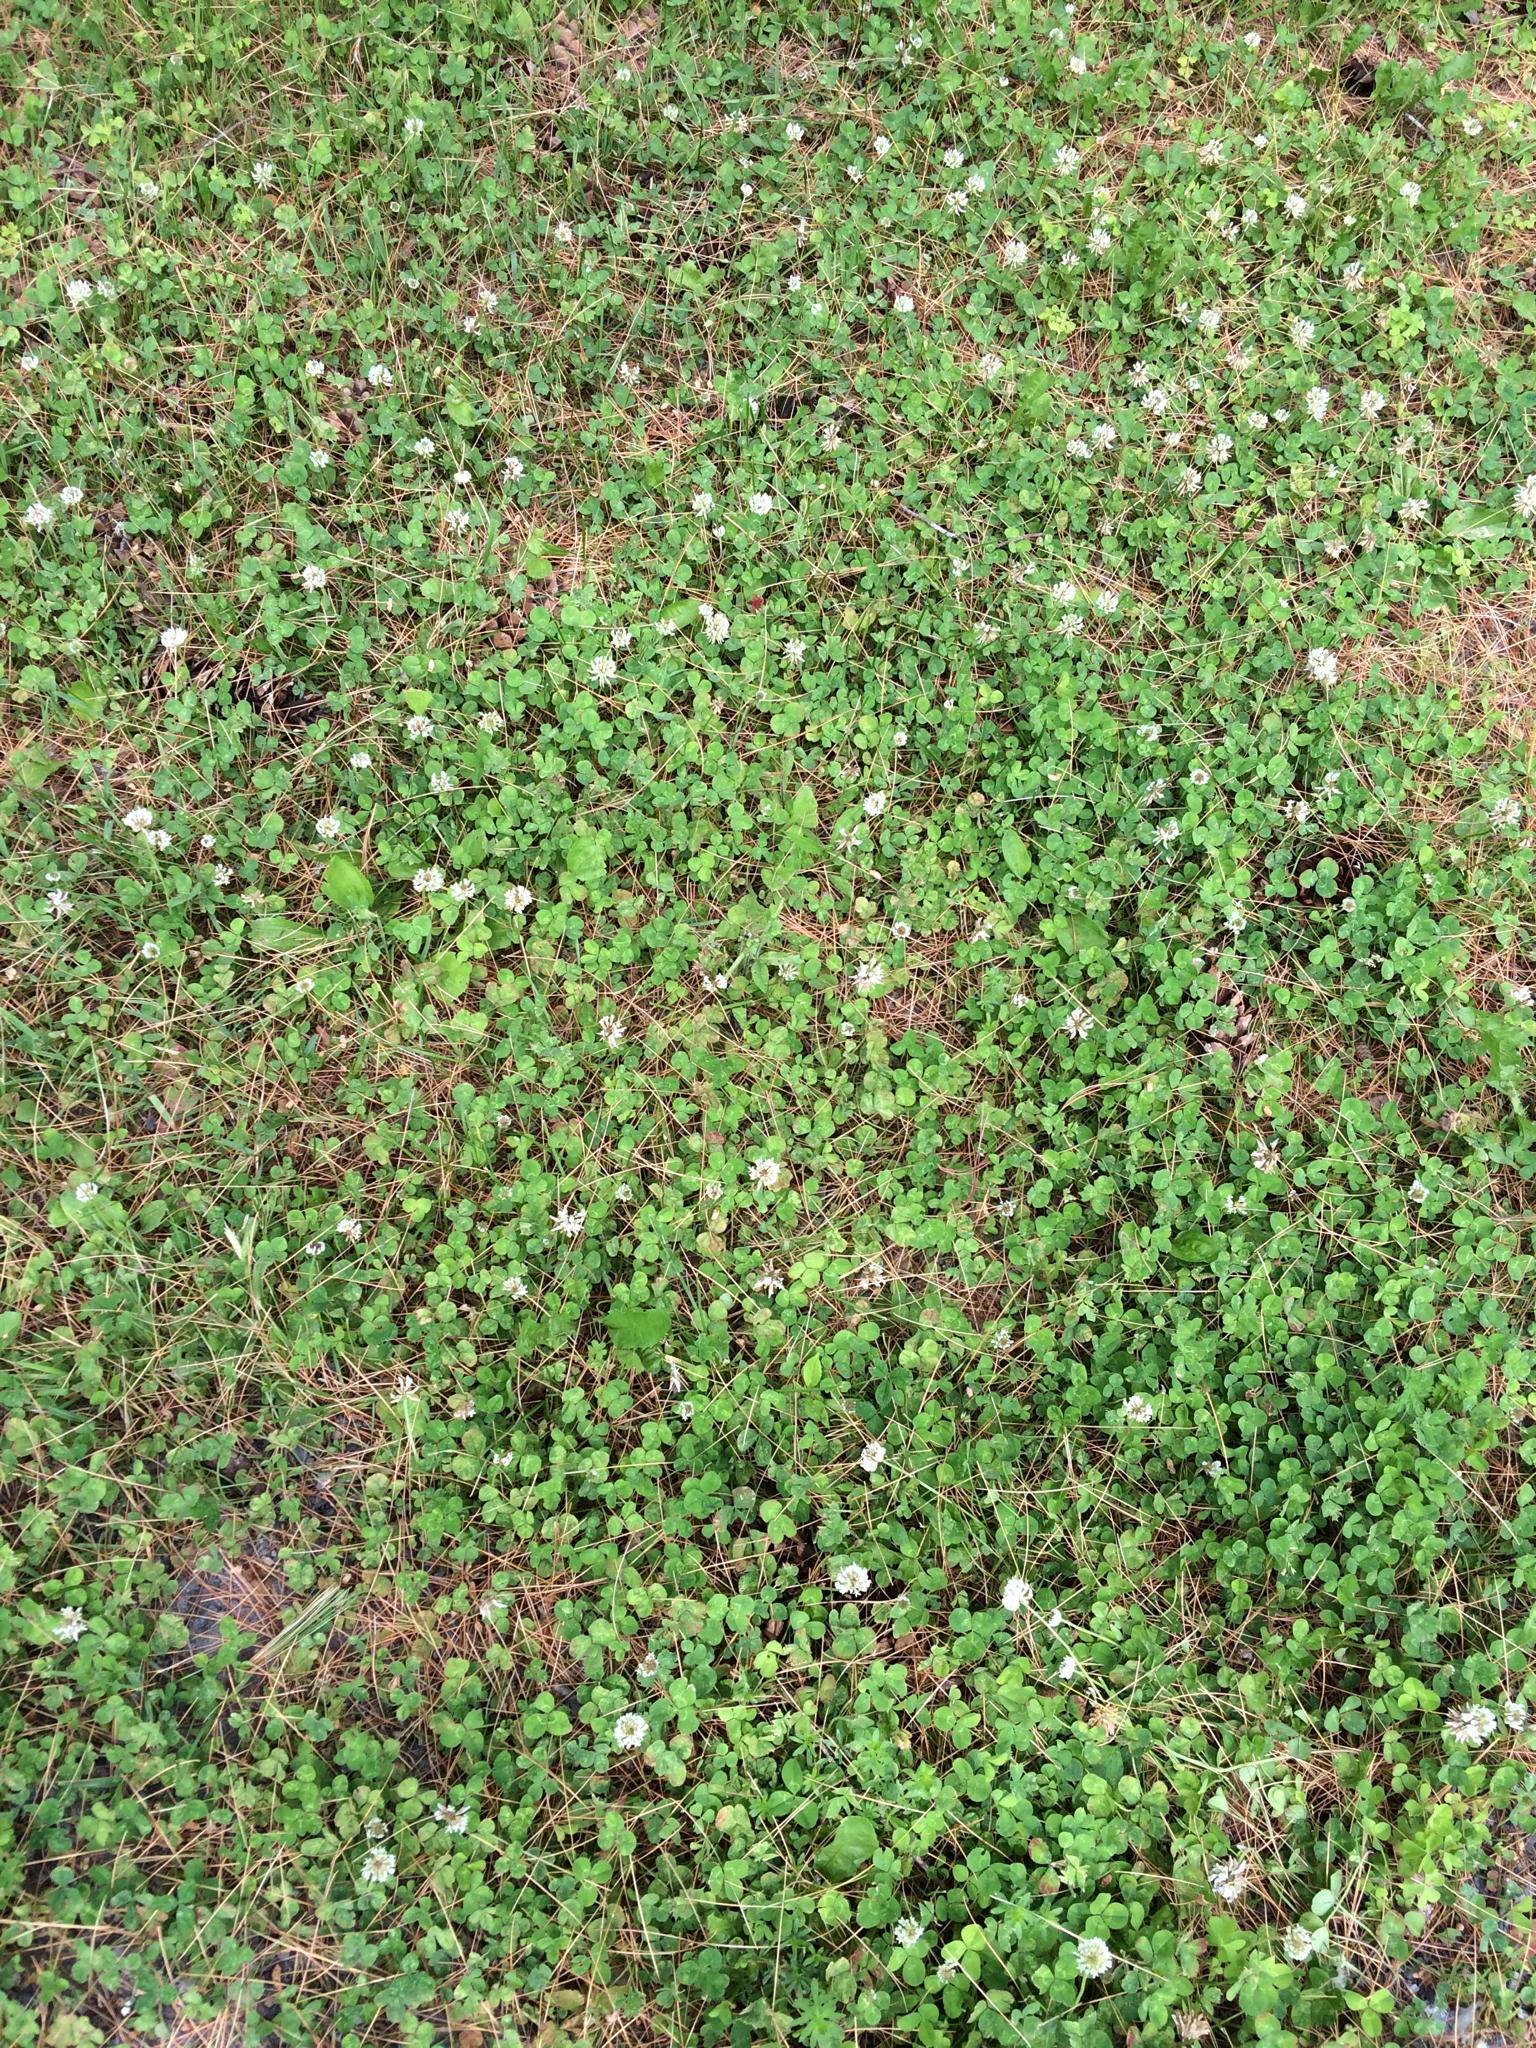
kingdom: Plantae
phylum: Tracheophyta
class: Magnoliopsida
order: Fabales
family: Fabaceae
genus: Trifolium
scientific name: Trifolium repens
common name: White clover
